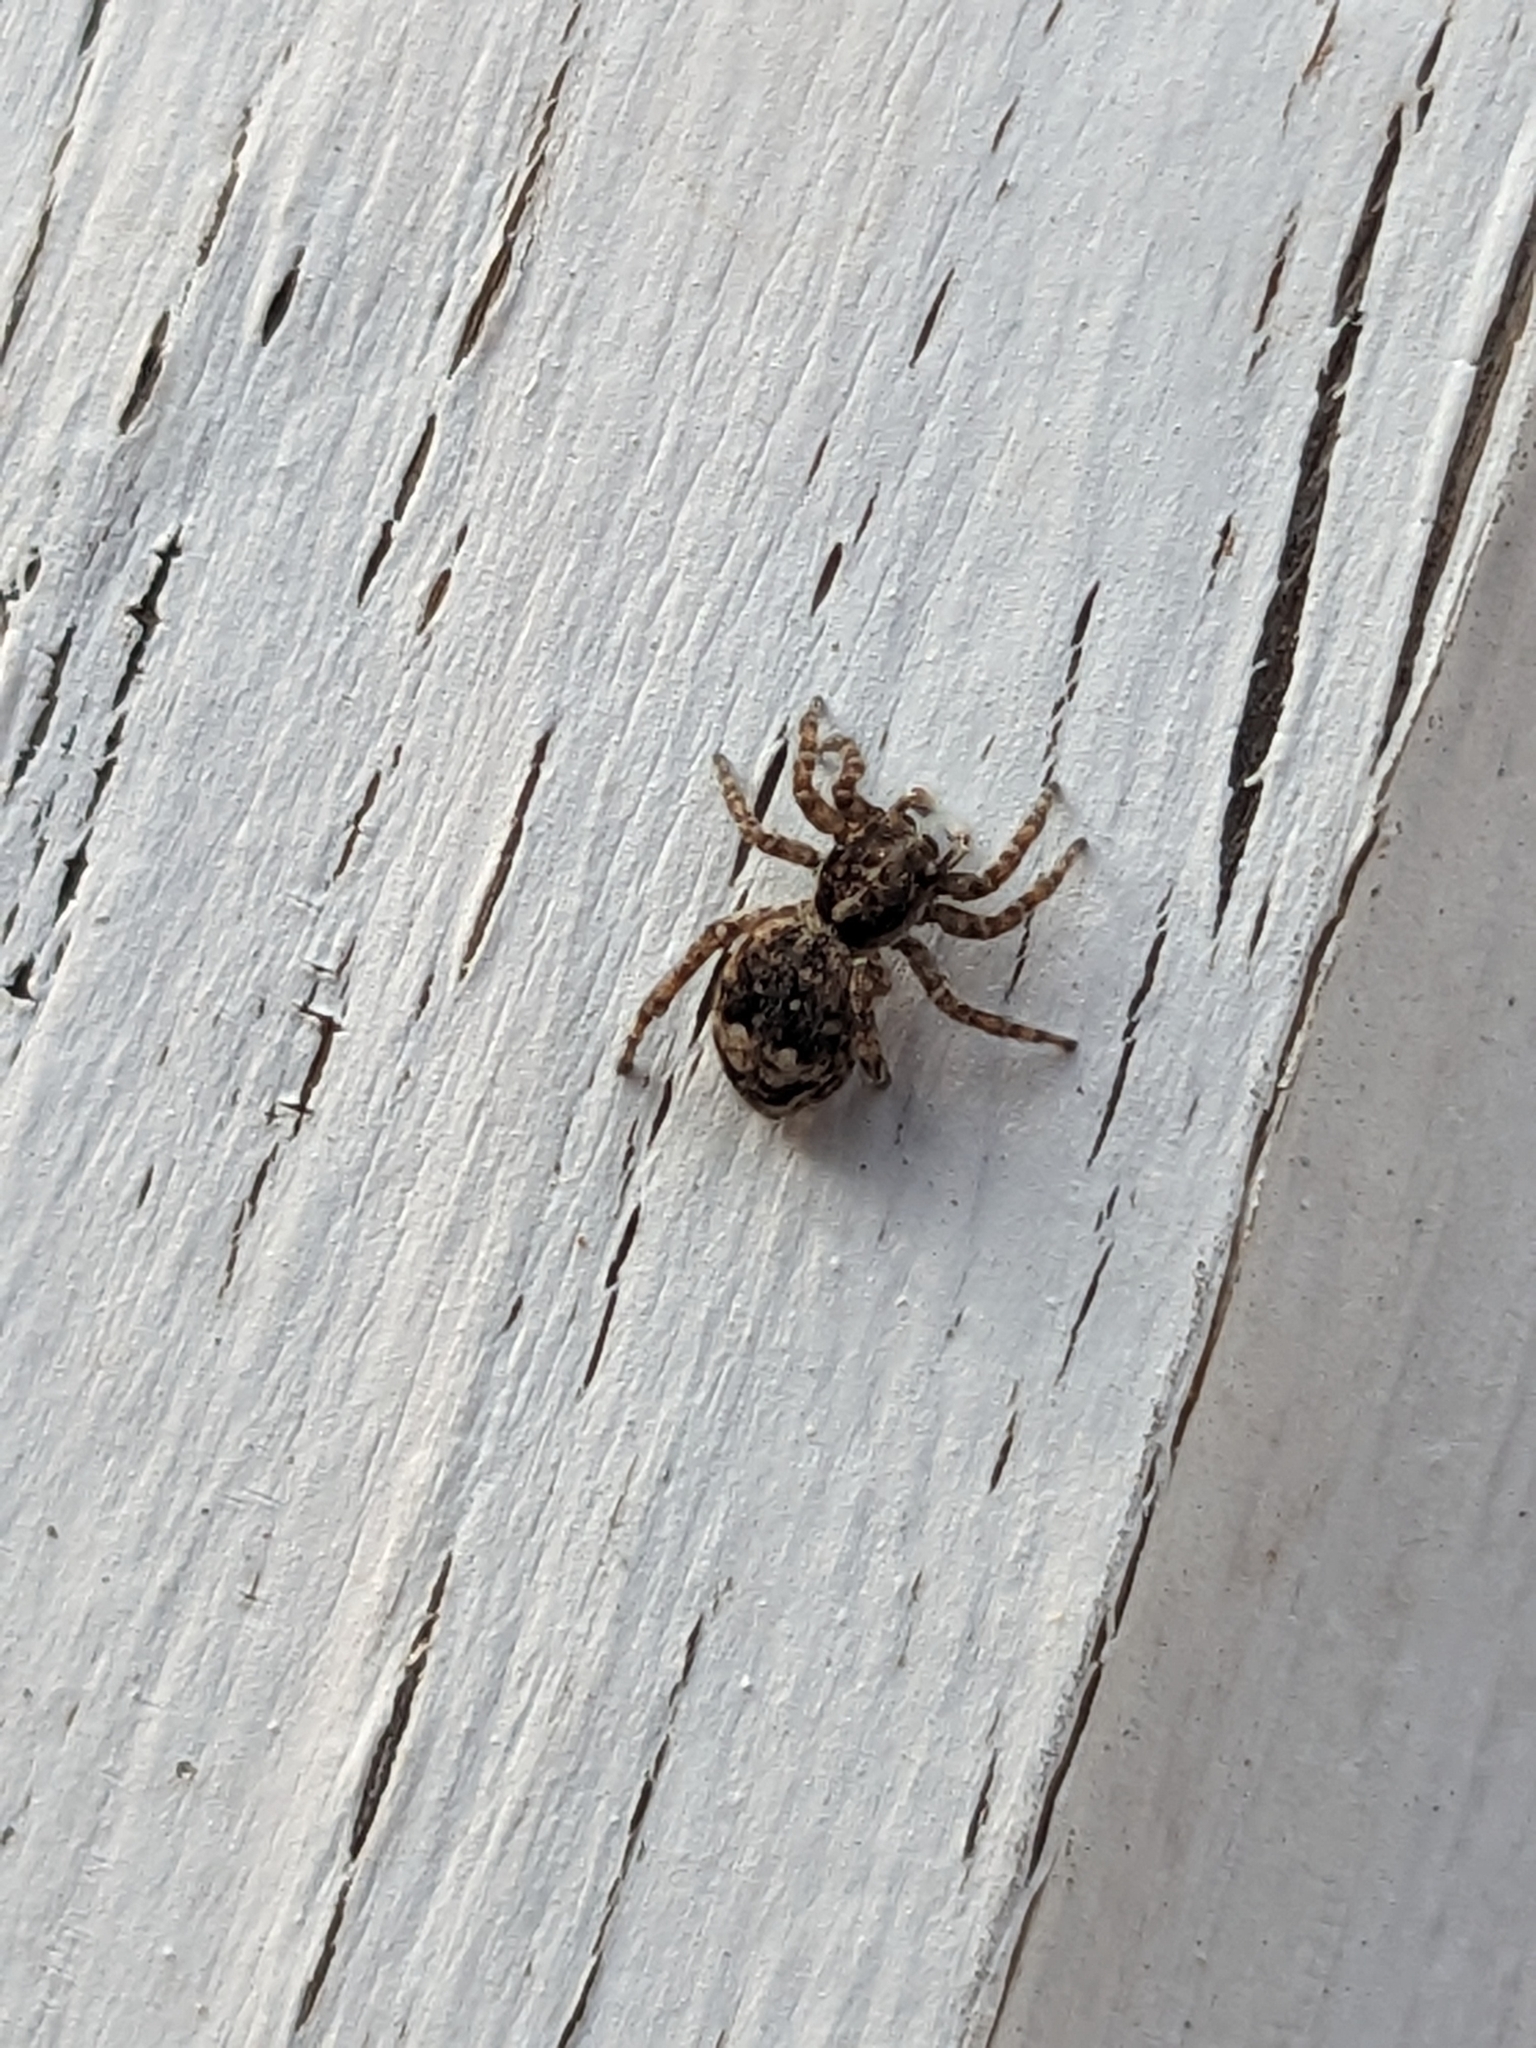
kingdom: Animalia
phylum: Arthropoda
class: Arachnida
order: Araneae
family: Salticidae
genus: Attulus
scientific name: Attulus fasciger
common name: Asiatic wall jumping spider
